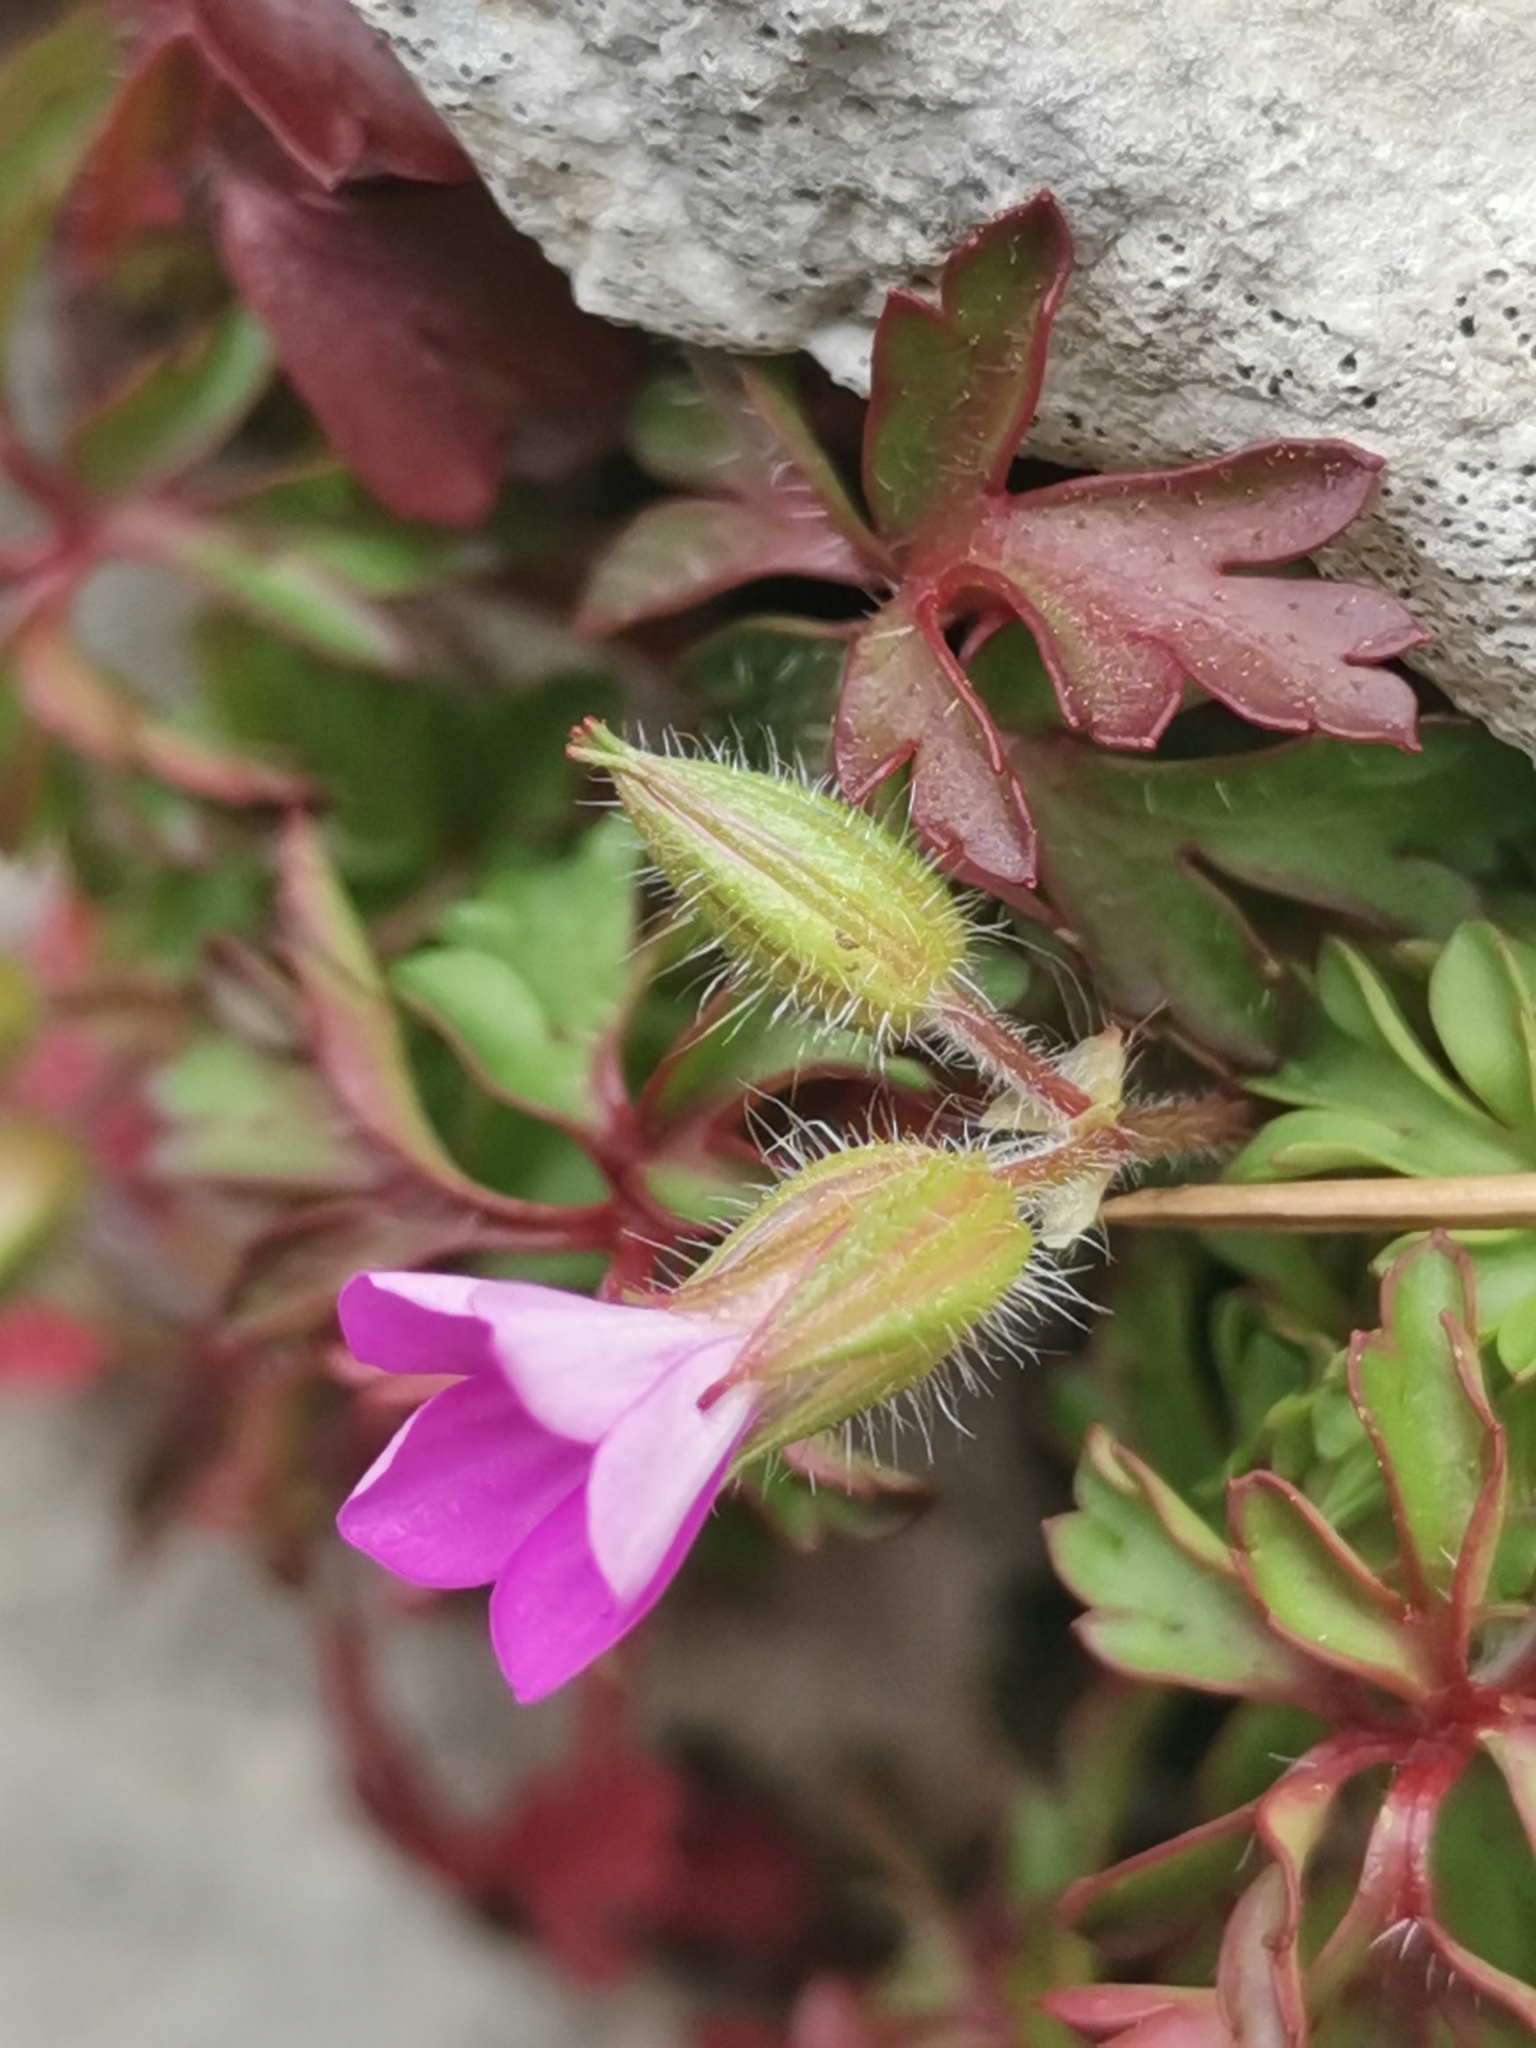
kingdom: Plantae
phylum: Tracheophyta
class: Magnoliopsida
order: Geraniales
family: Geraniaceae
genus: Geranium
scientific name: Geranium purpureum
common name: Little-robin
